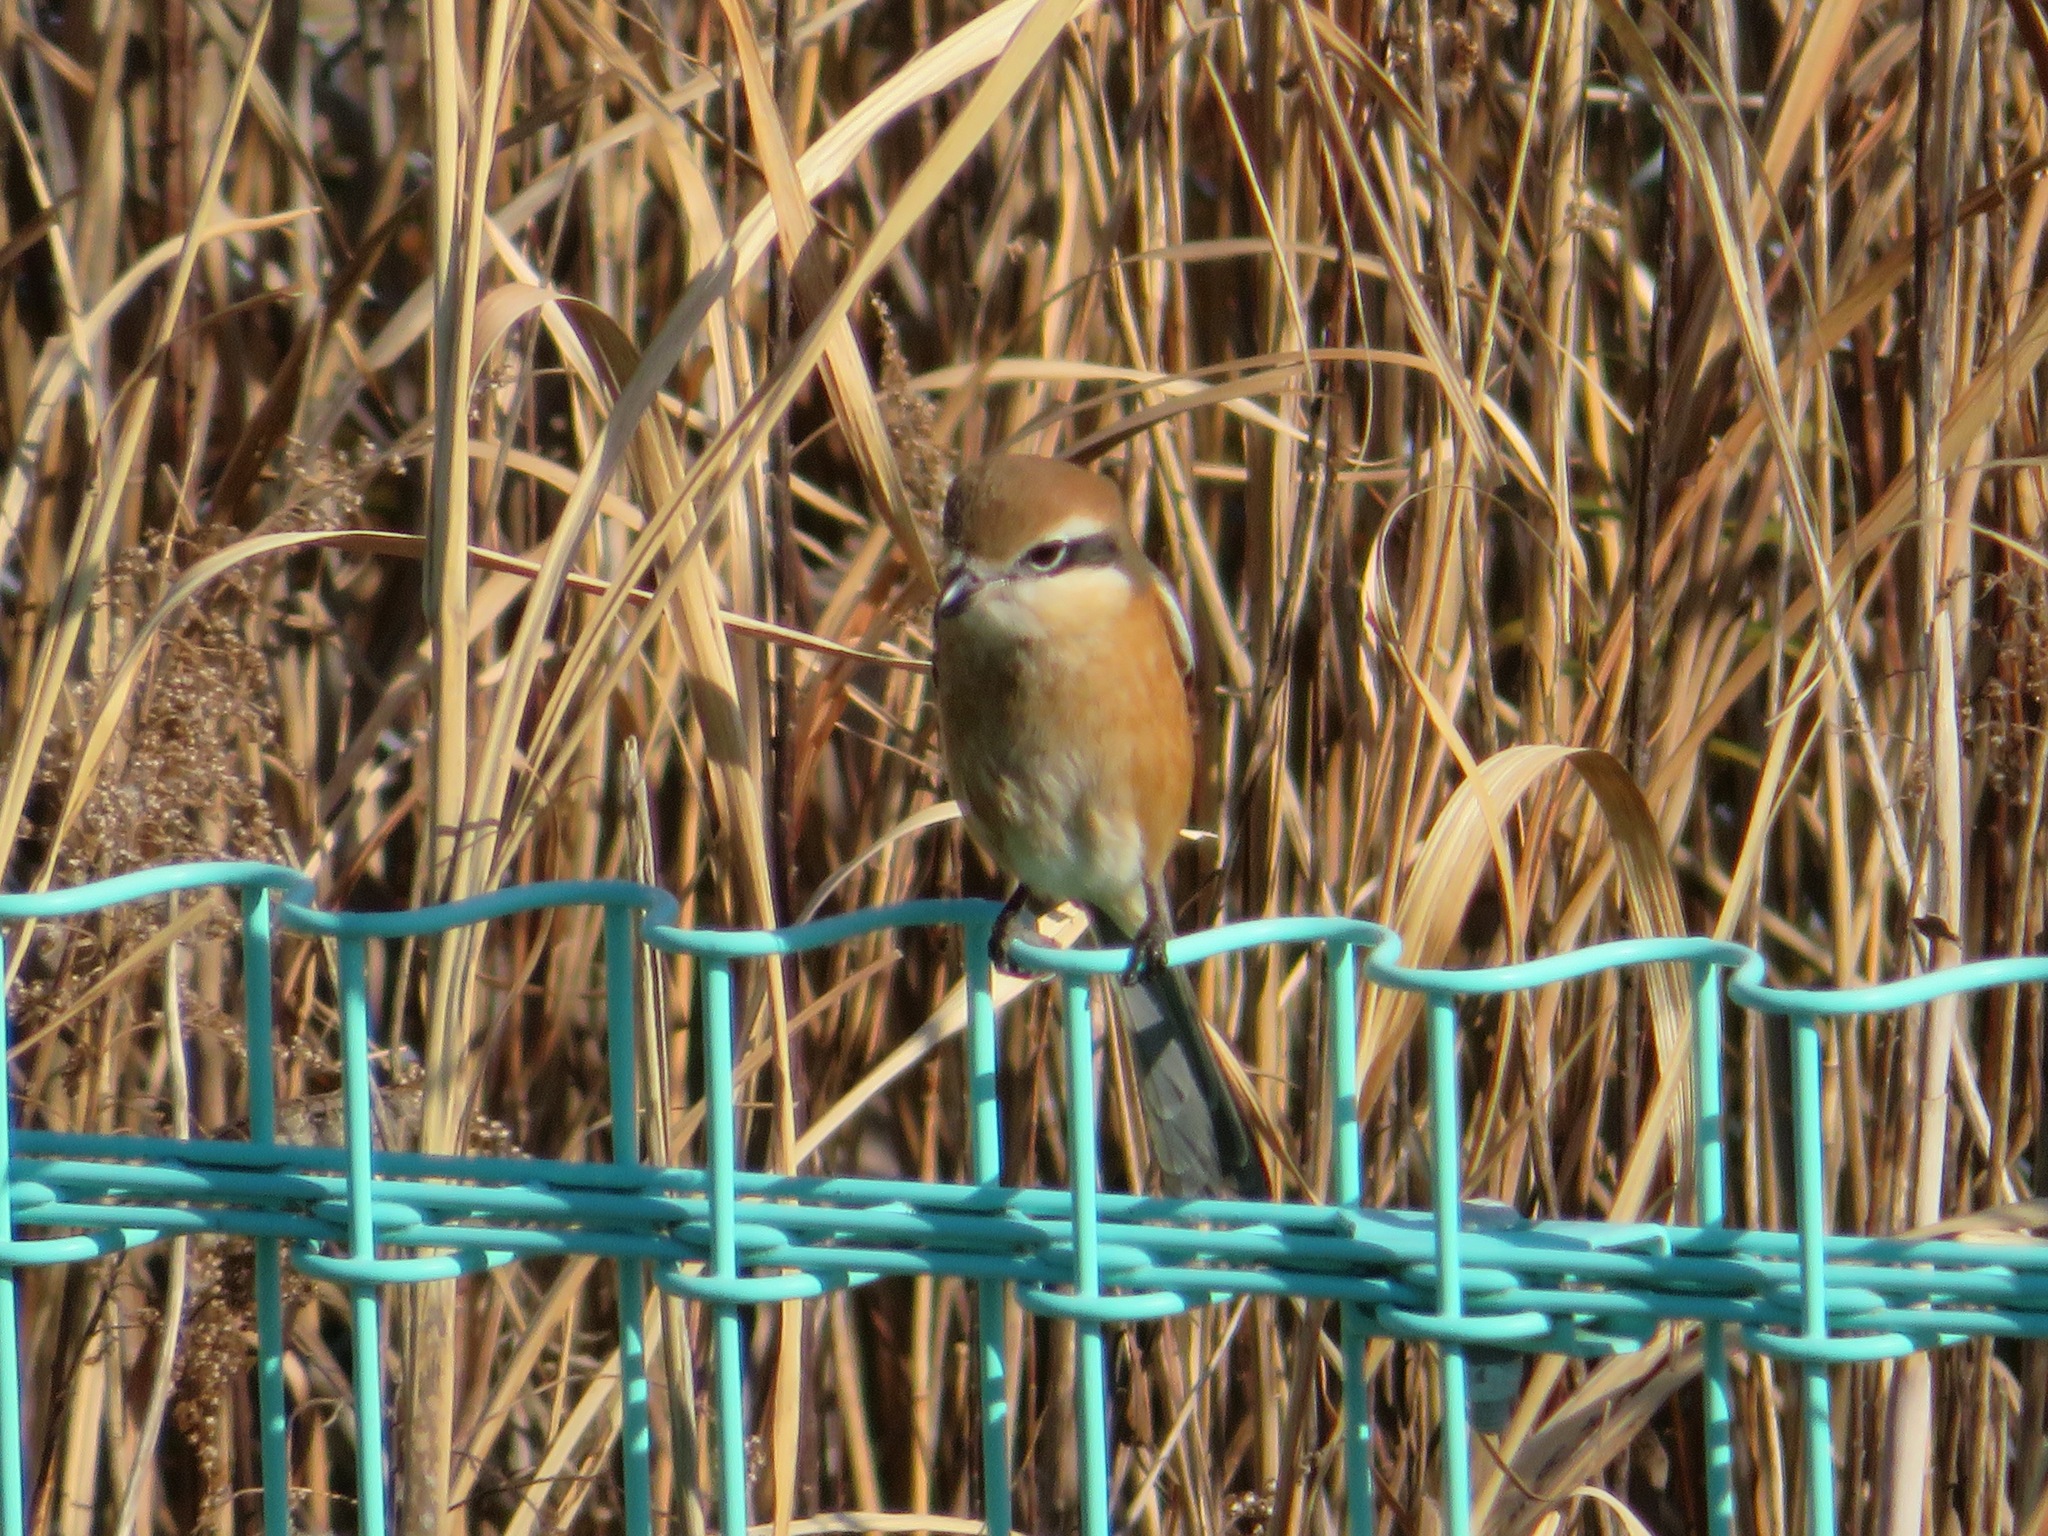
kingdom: Animalia
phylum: Chordata
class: Aves
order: Passeriformes
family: Laniidae
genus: Lanius
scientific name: Lanius bucephalus
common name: Bull-headed shrike
